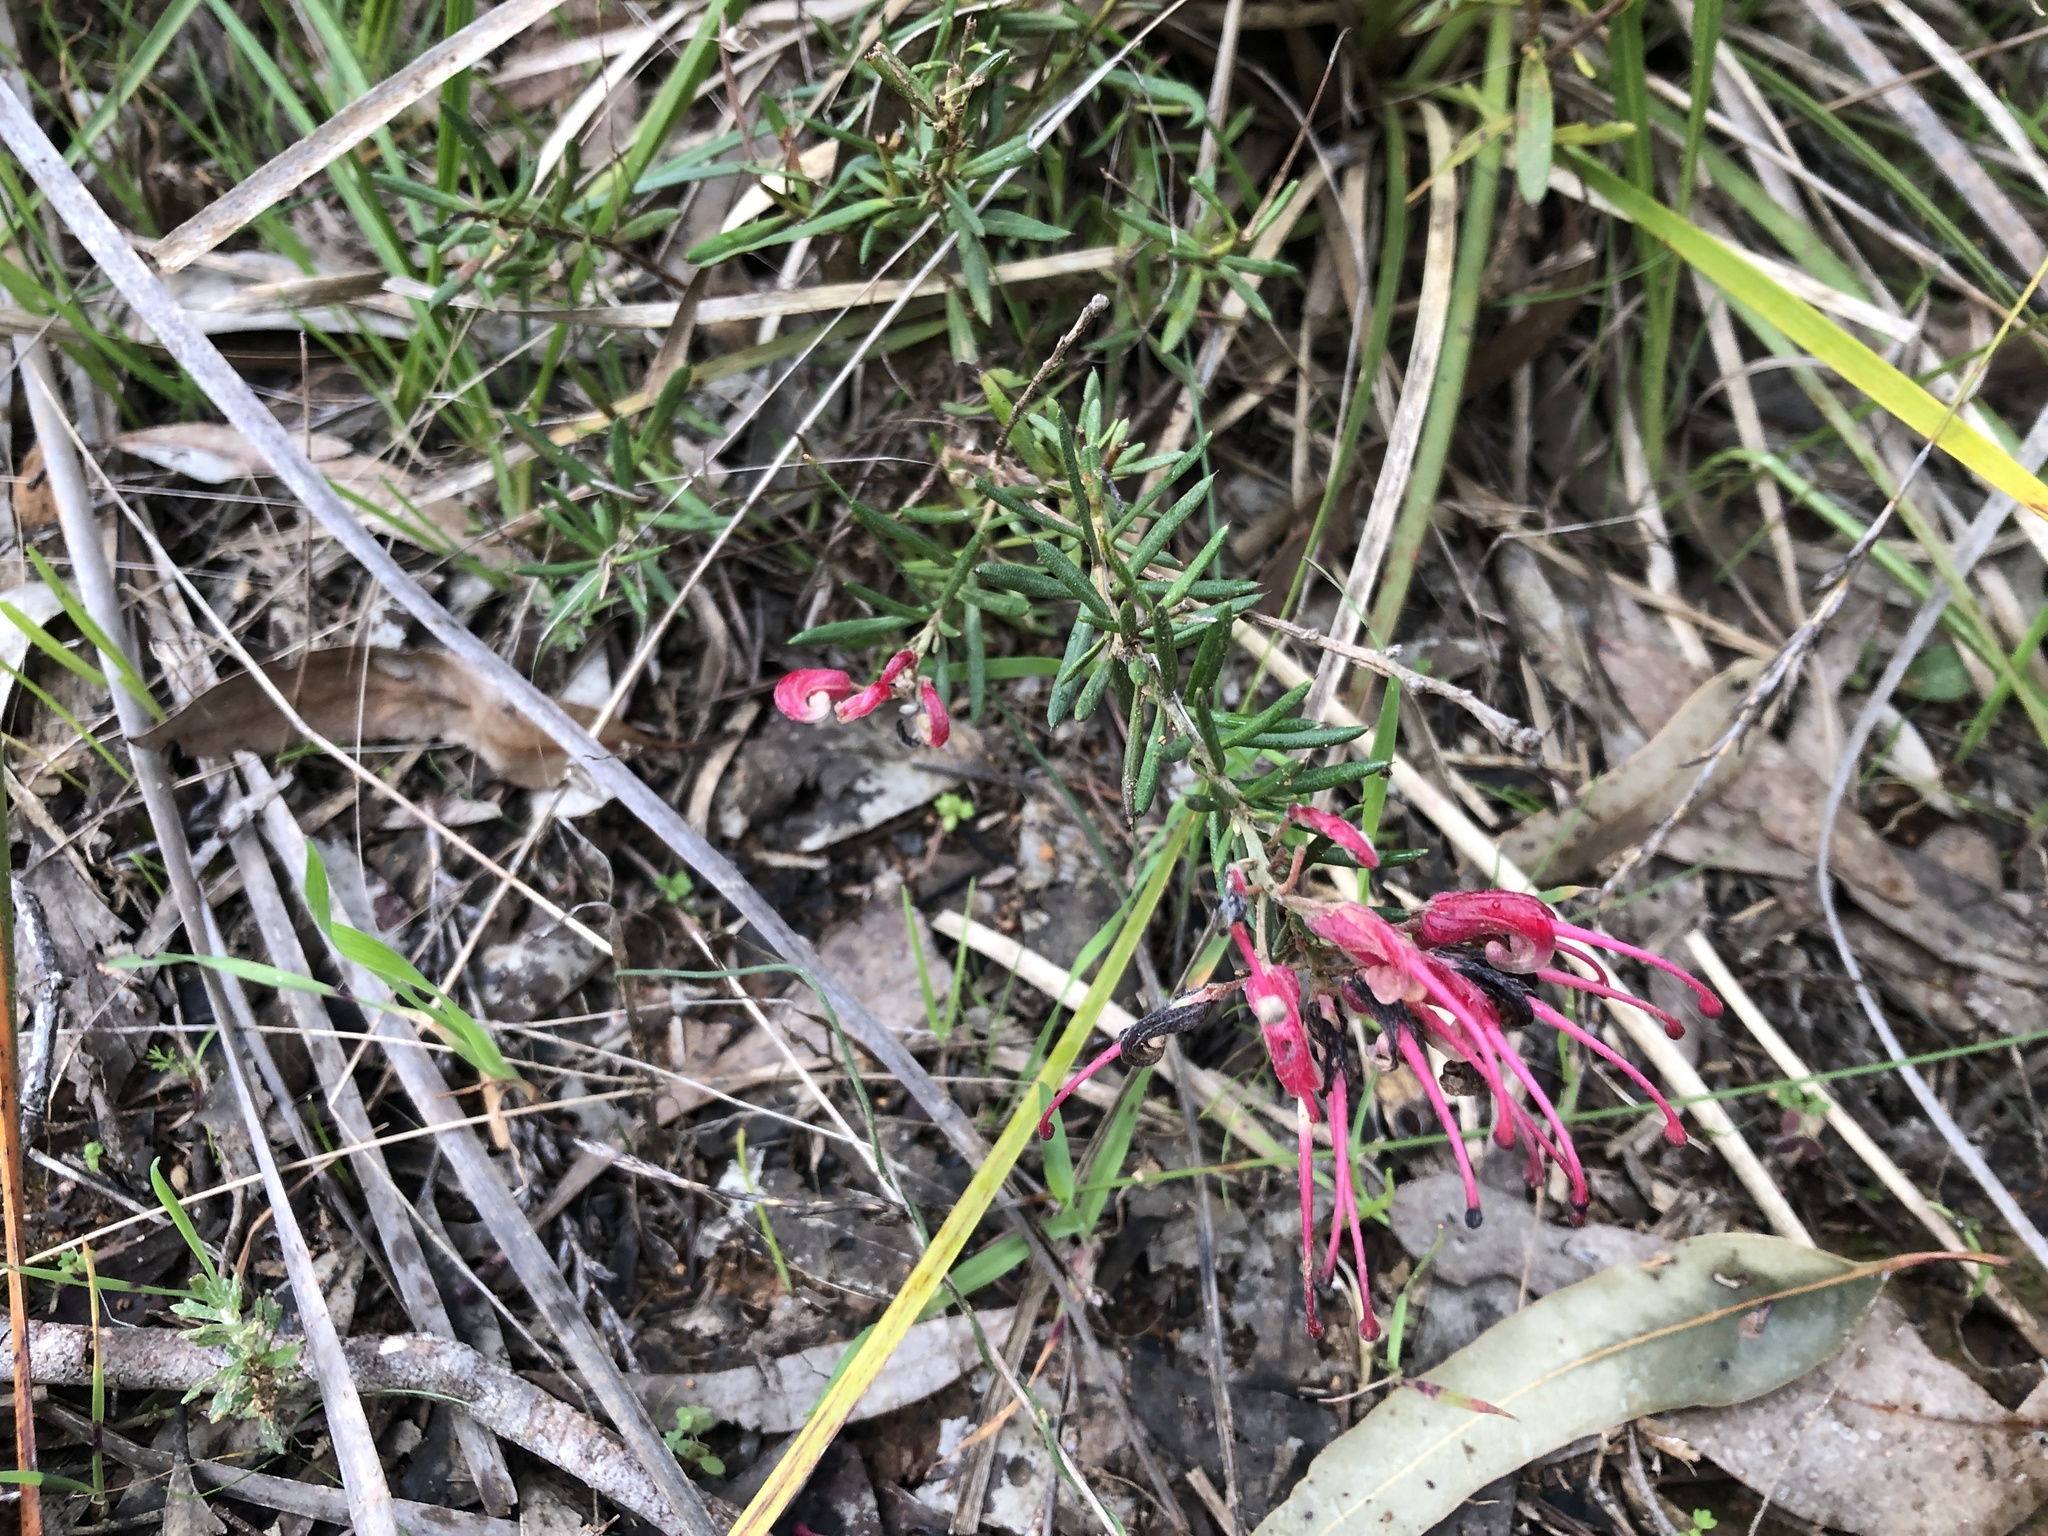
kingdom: Plantae
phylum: Tracheophyta
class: Magnoliopsida
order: Proteales
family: Proteaceae
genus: Grevillea
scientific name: Grevillea lavandulacea
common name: Lavender grevillea
